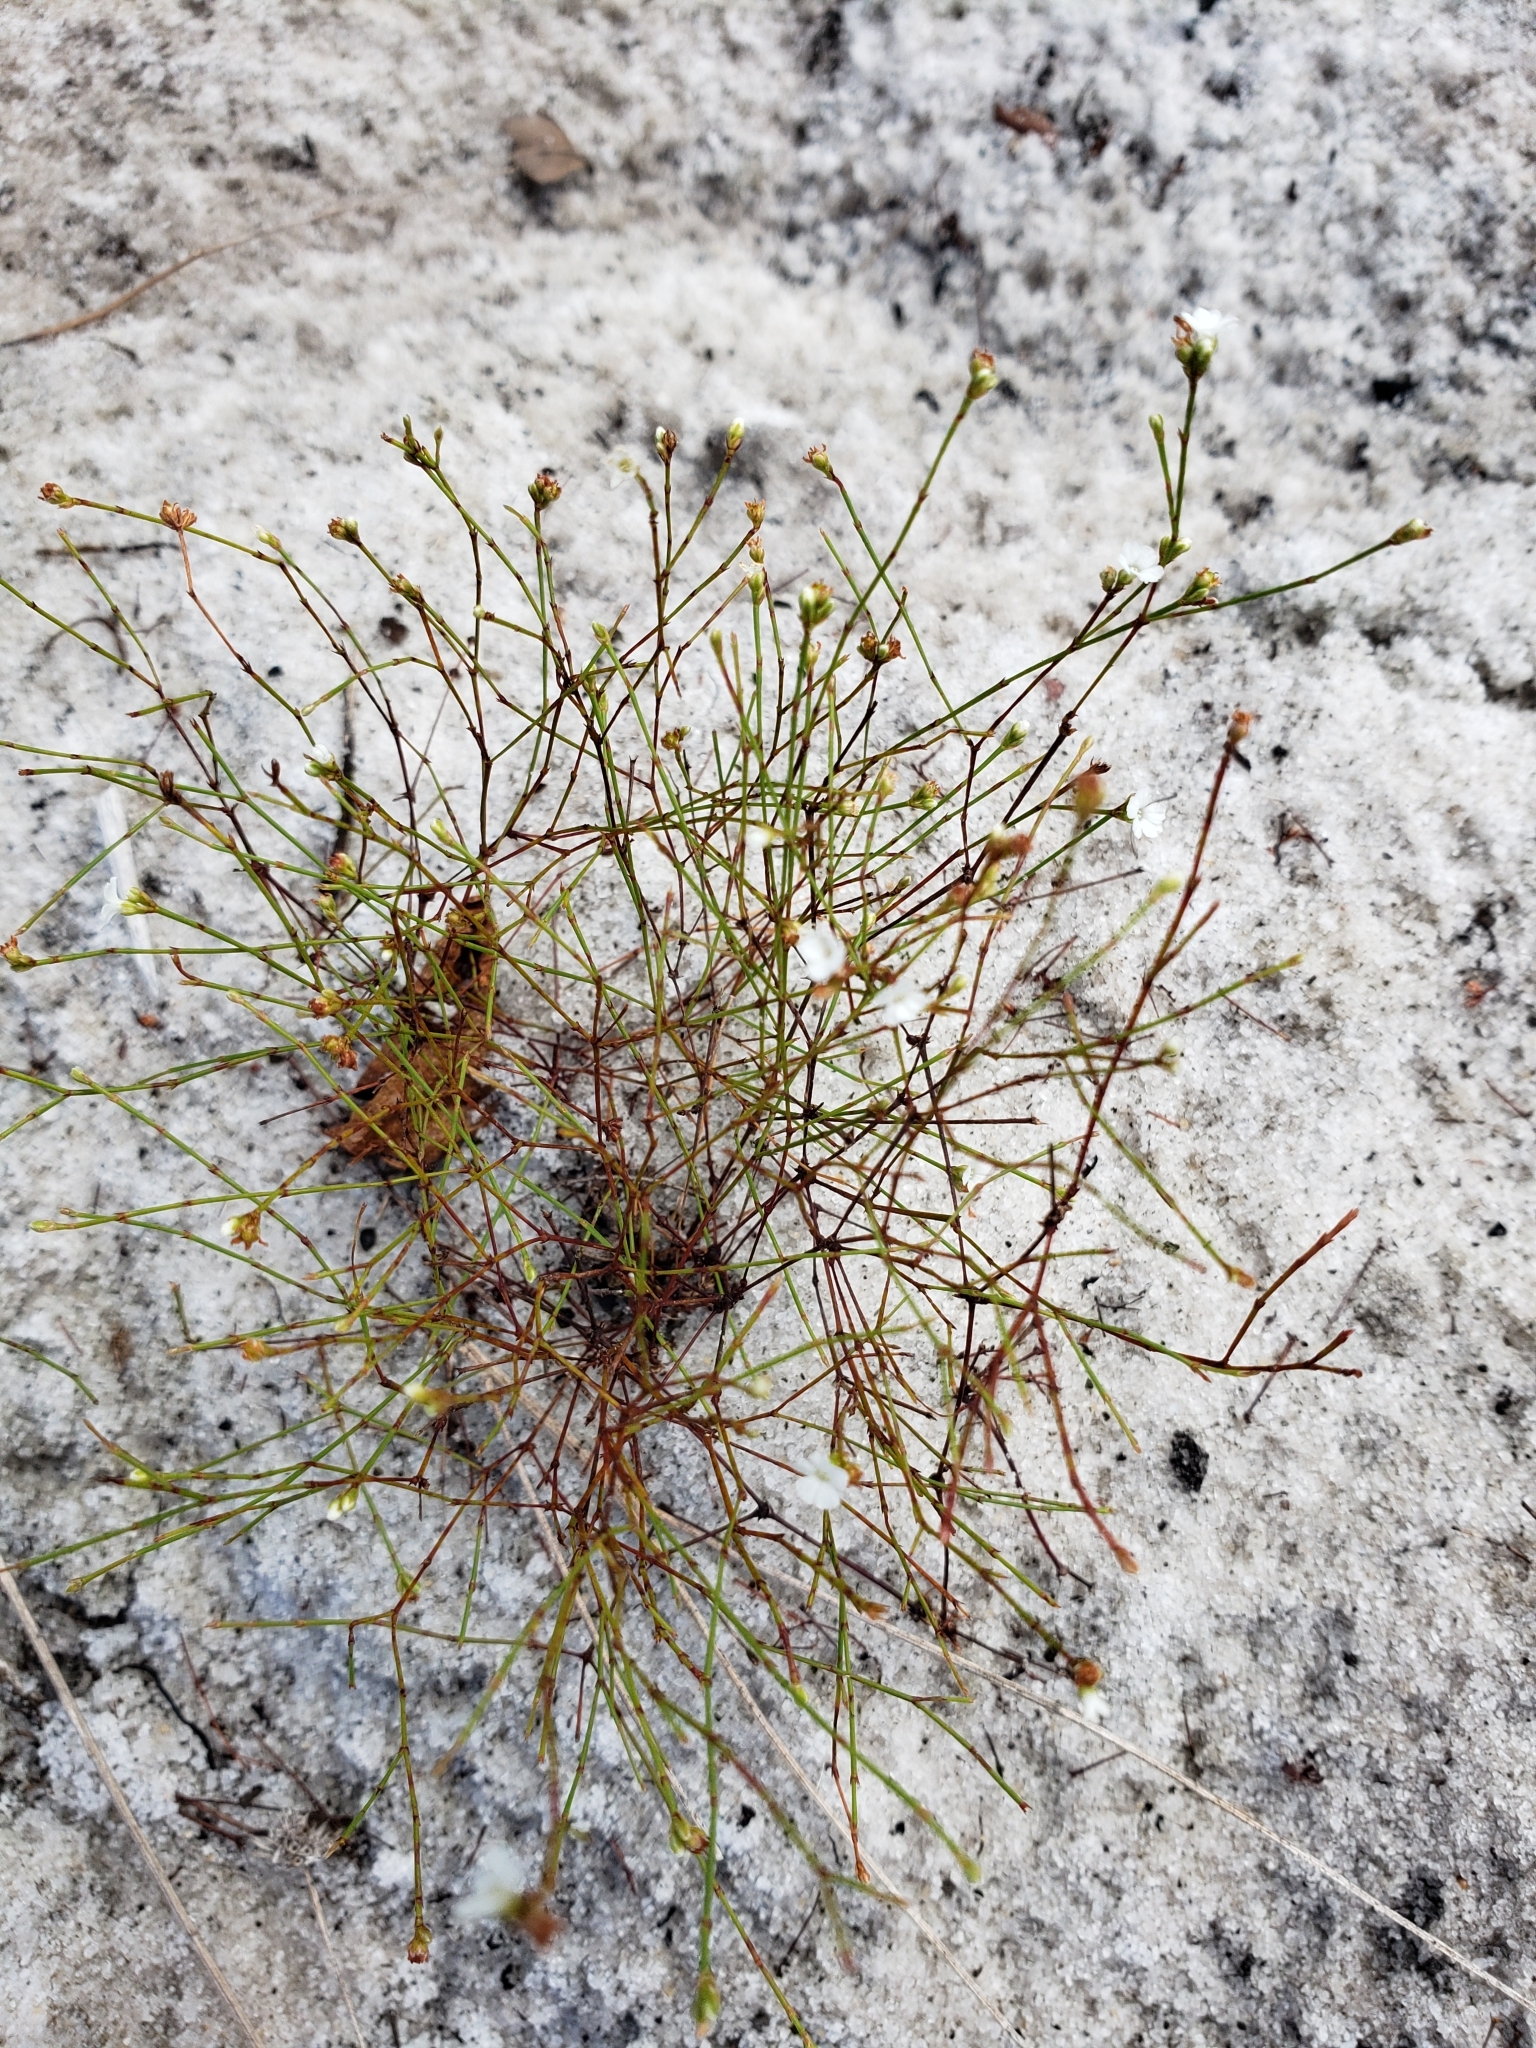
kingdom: Plantae
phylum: Tracheophyta
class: Magnoliopsida
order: Caryophyllales
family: Caryophyllaceae
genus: Stipulicida
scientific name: Stipulicida setacea
